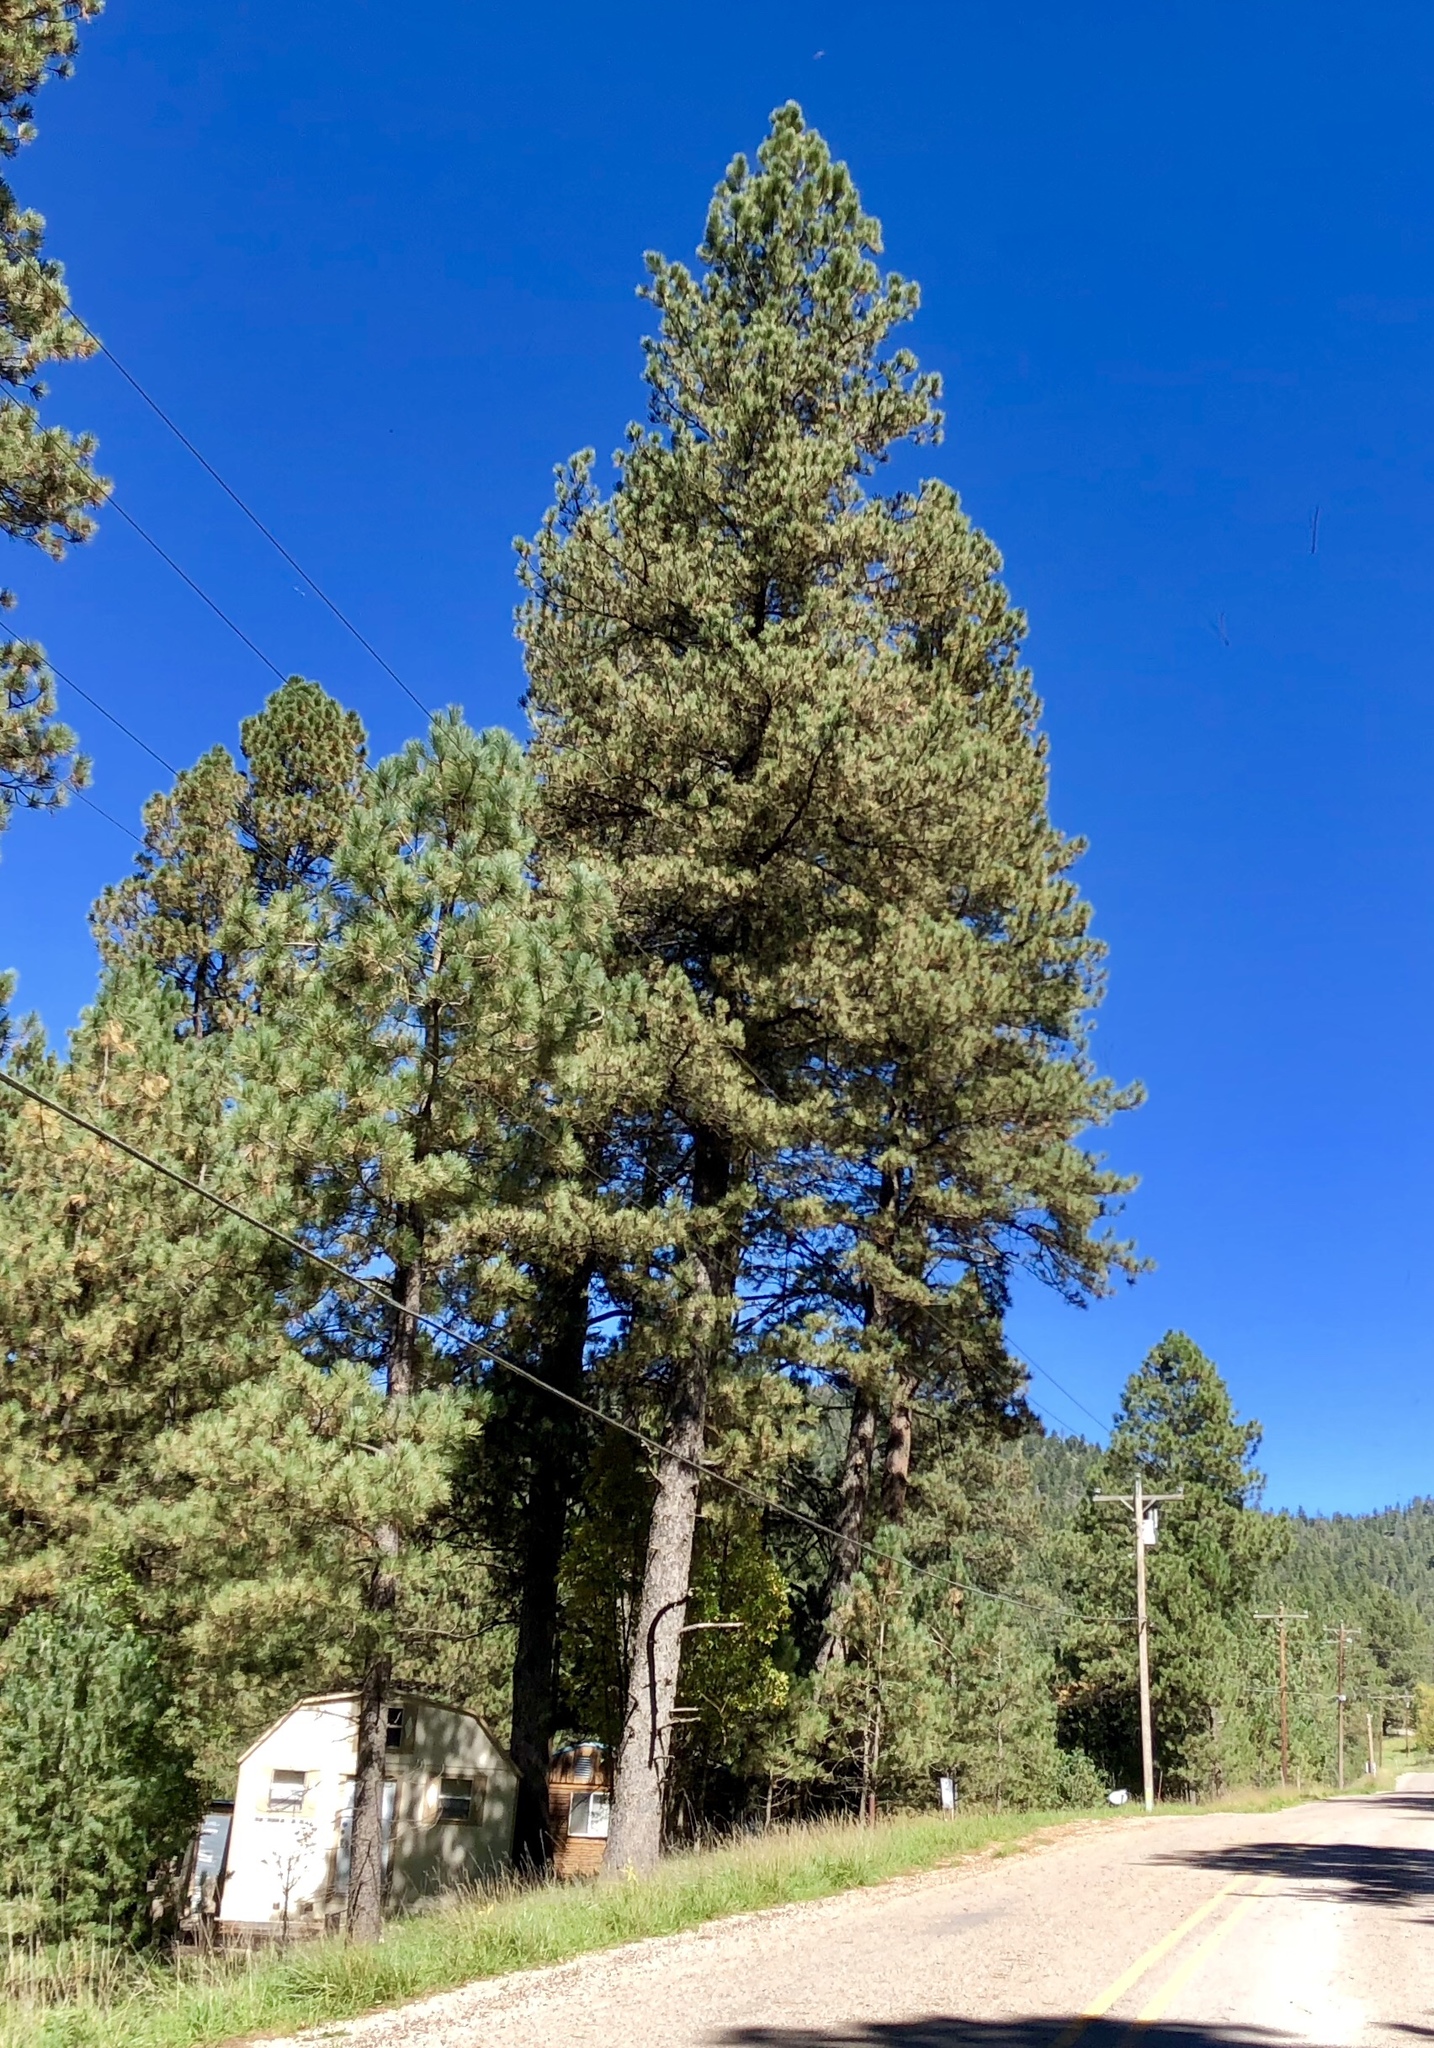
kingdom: Plantae
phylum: Tracheophyta
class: Pinopsida
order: Pinales
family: Pinaceae
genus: Pinus
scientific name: Pinus ponderosa
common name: Western yellow-pine
